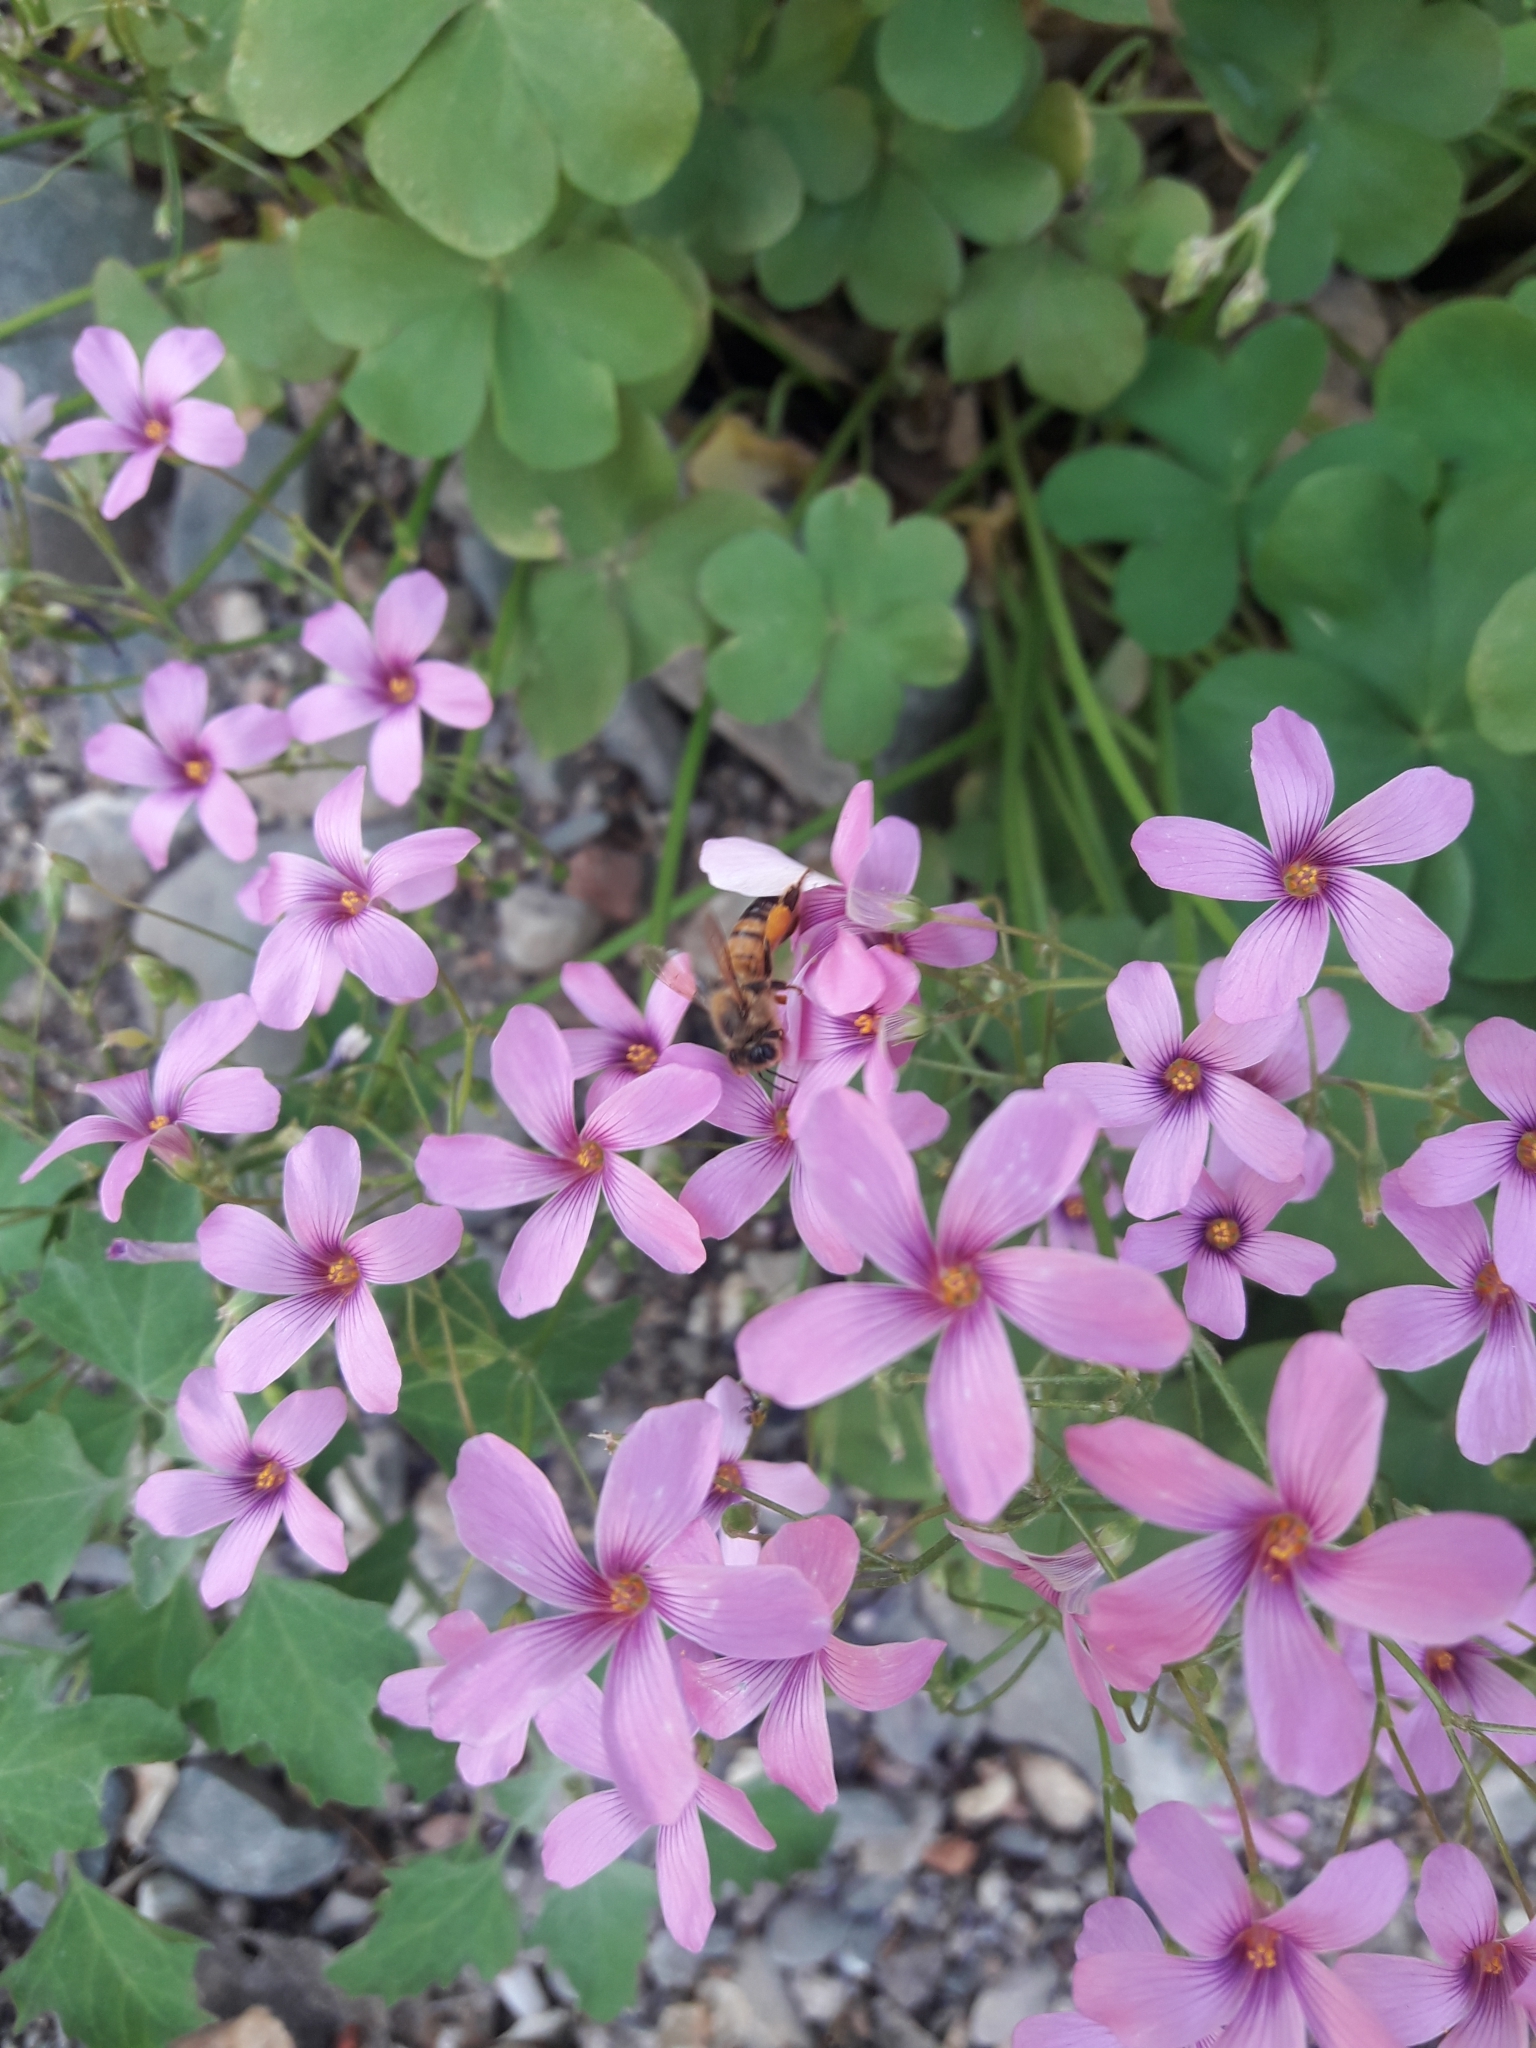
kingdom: Animalia
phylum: Arthropoda
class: Insecta
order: Hymenoptera
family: Apidae
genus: Apis
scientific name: Apis mellifera
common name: Honey bee
